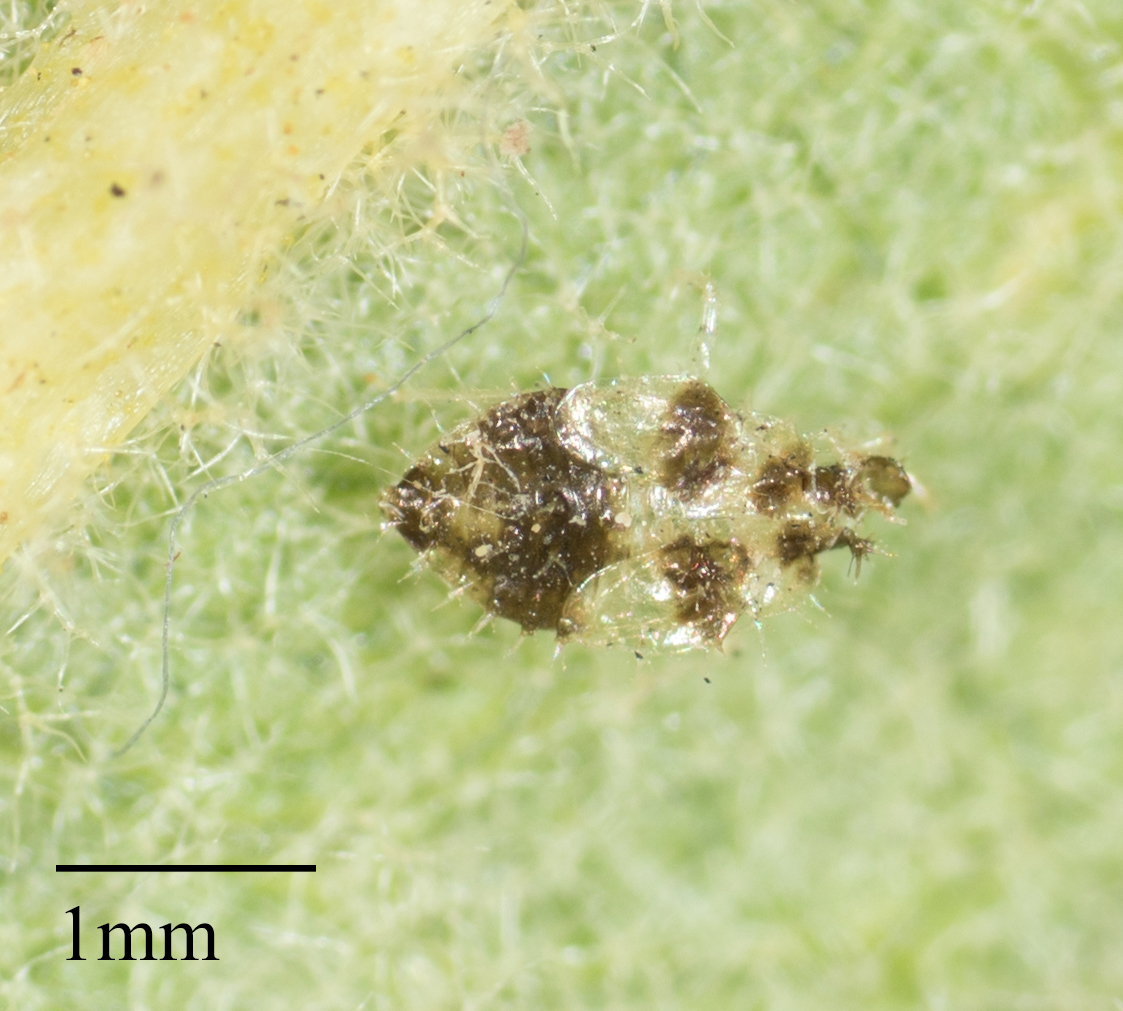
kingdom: Animalia
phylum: Arthropoda
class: Insecta
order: Hemiptera
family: Tingidae
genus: Corythucha
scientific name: Corythucha confraterna
